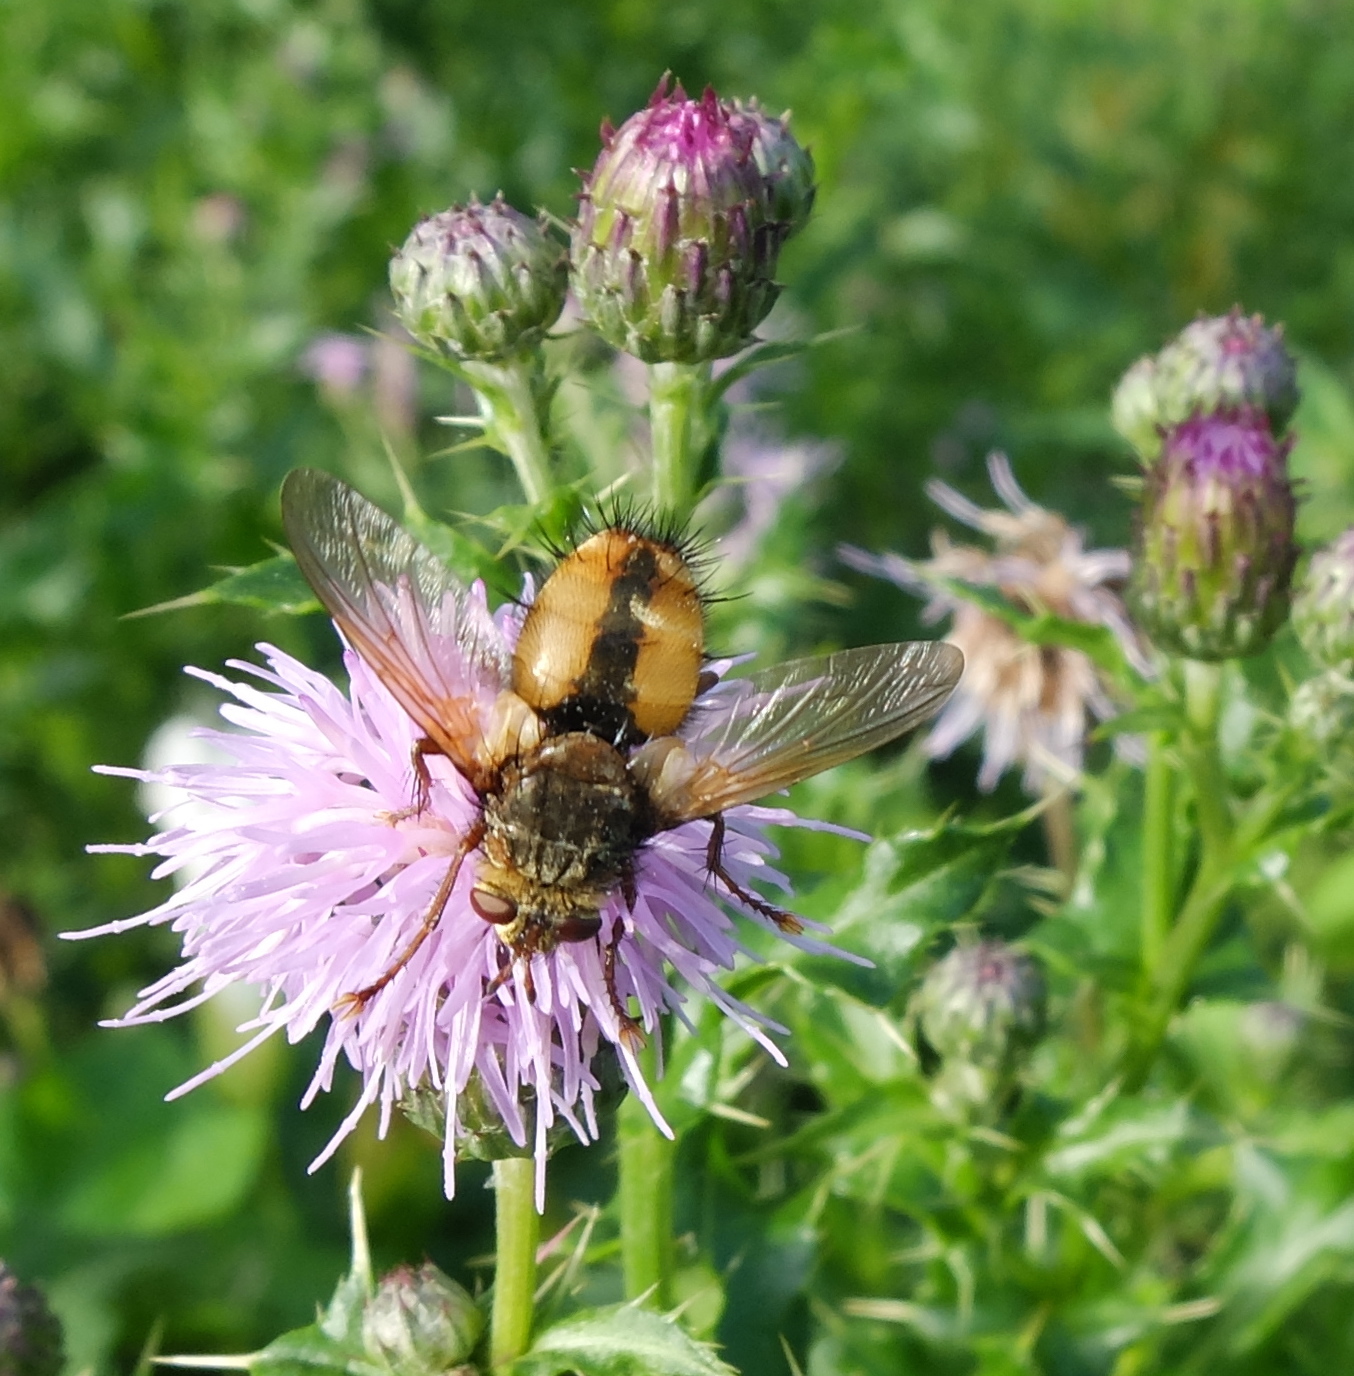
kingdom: Animalia
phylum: Arthropoda
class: Insecta
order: Diptera
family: Tachinidae
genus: Tachina
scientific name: Tachina fera
